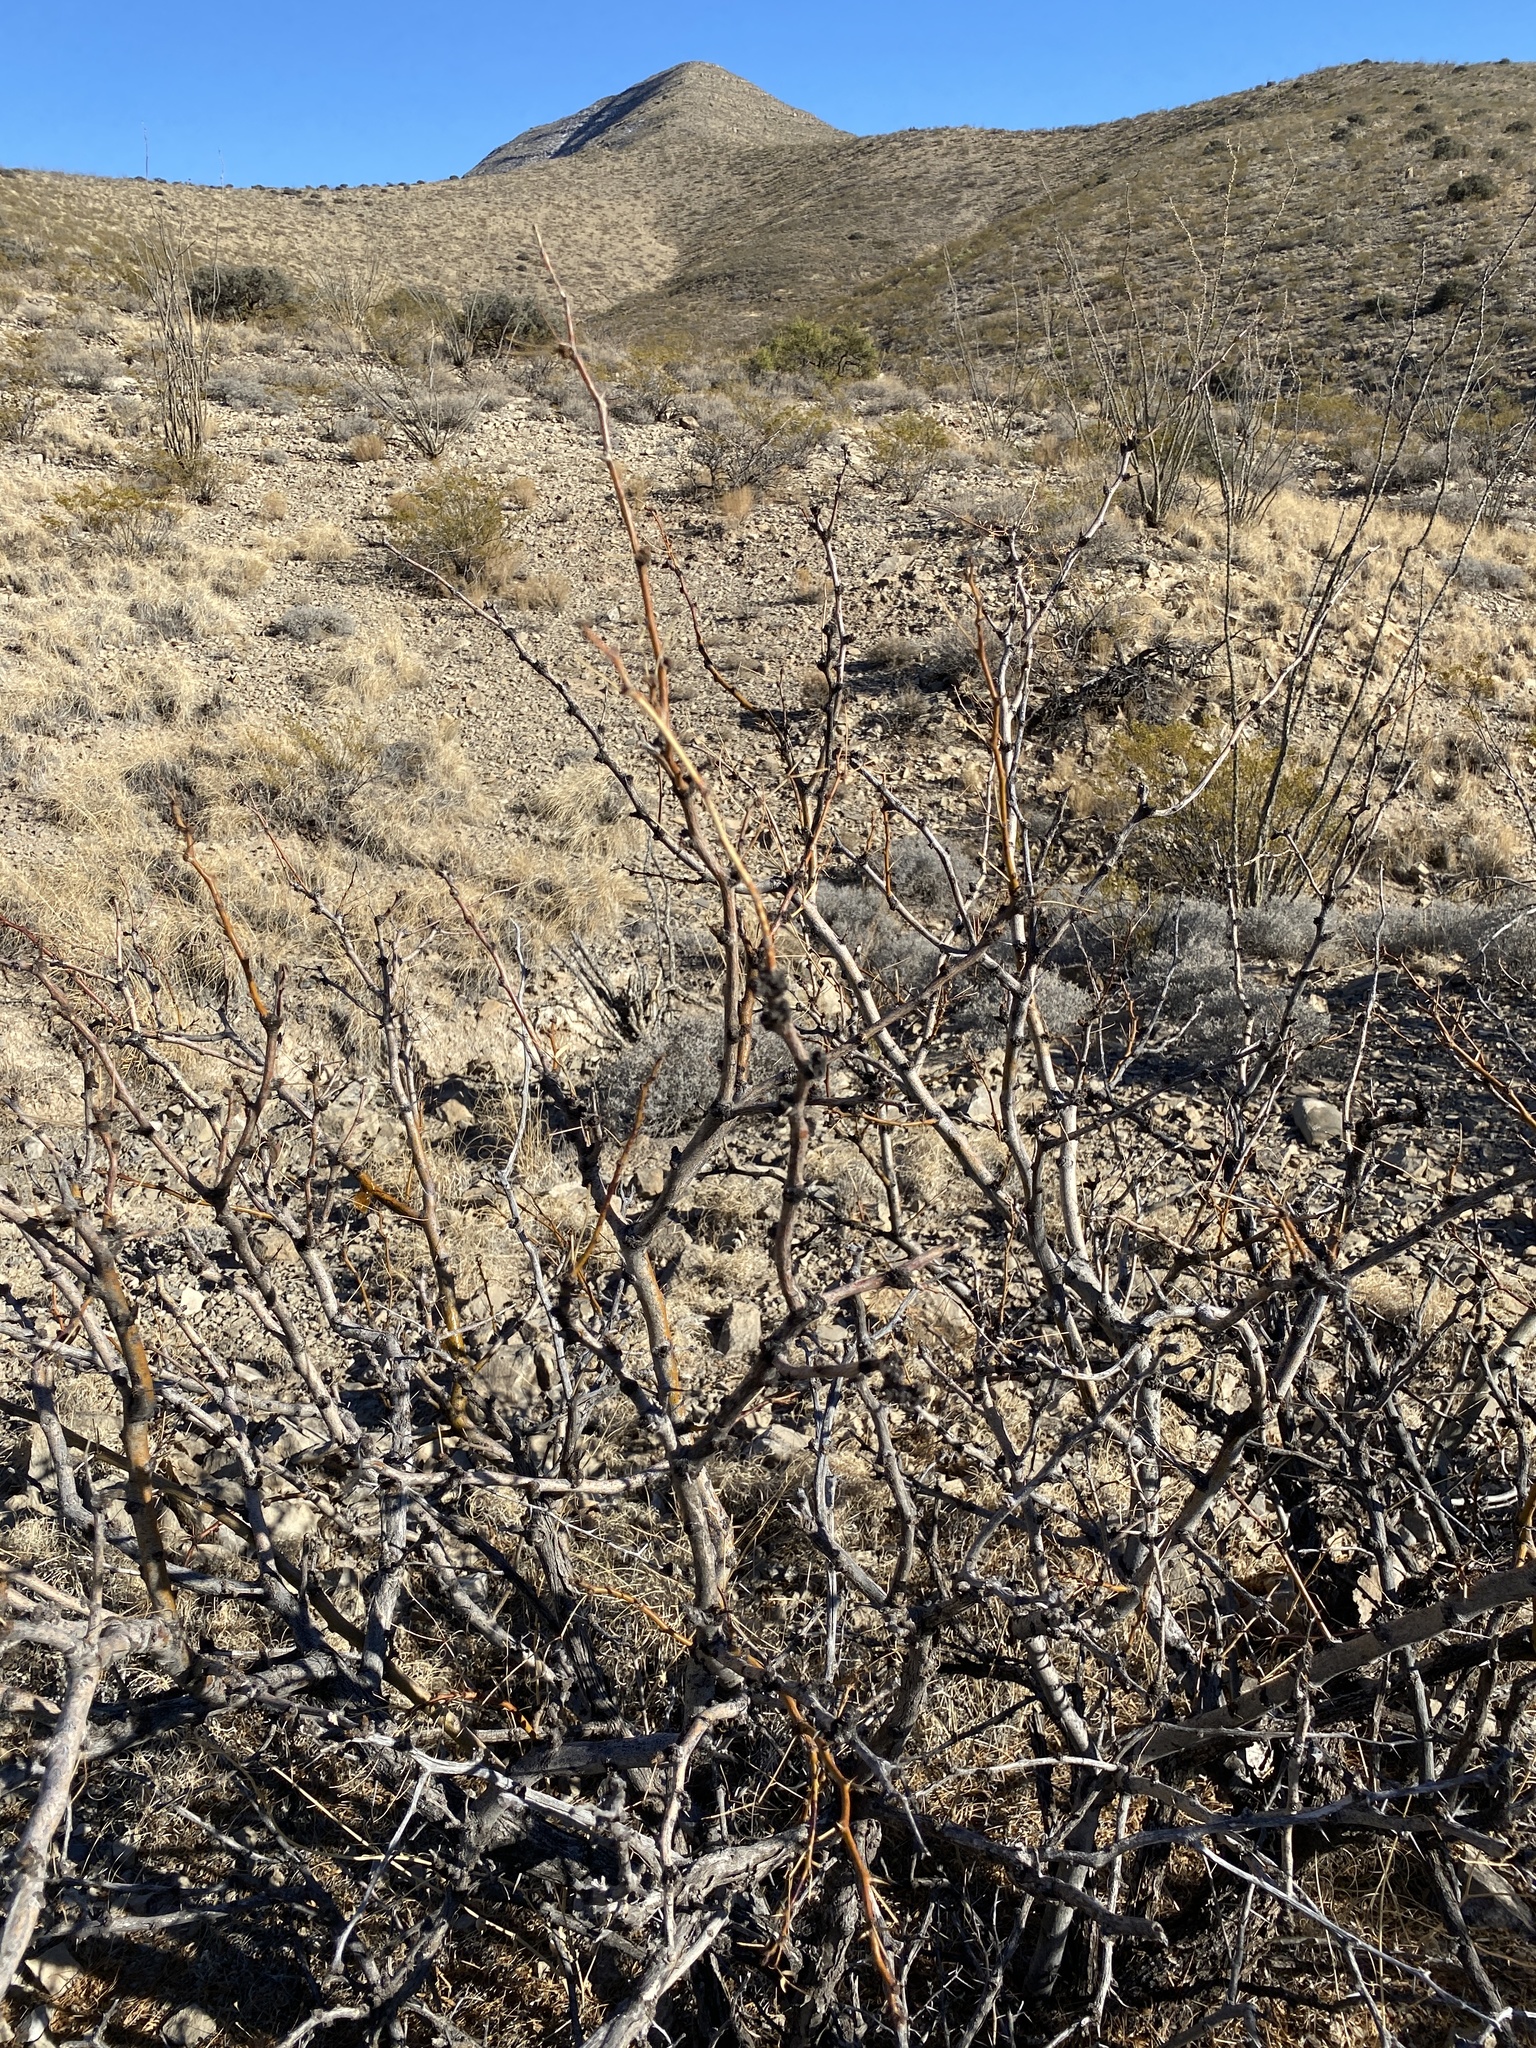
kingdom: Plantae
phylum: Tracheophyta
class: Magnoliopsida
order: Fabales
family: Fabaceae
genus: Prosopis
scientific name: Prosopis glandulosa
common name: Honey mesquite
